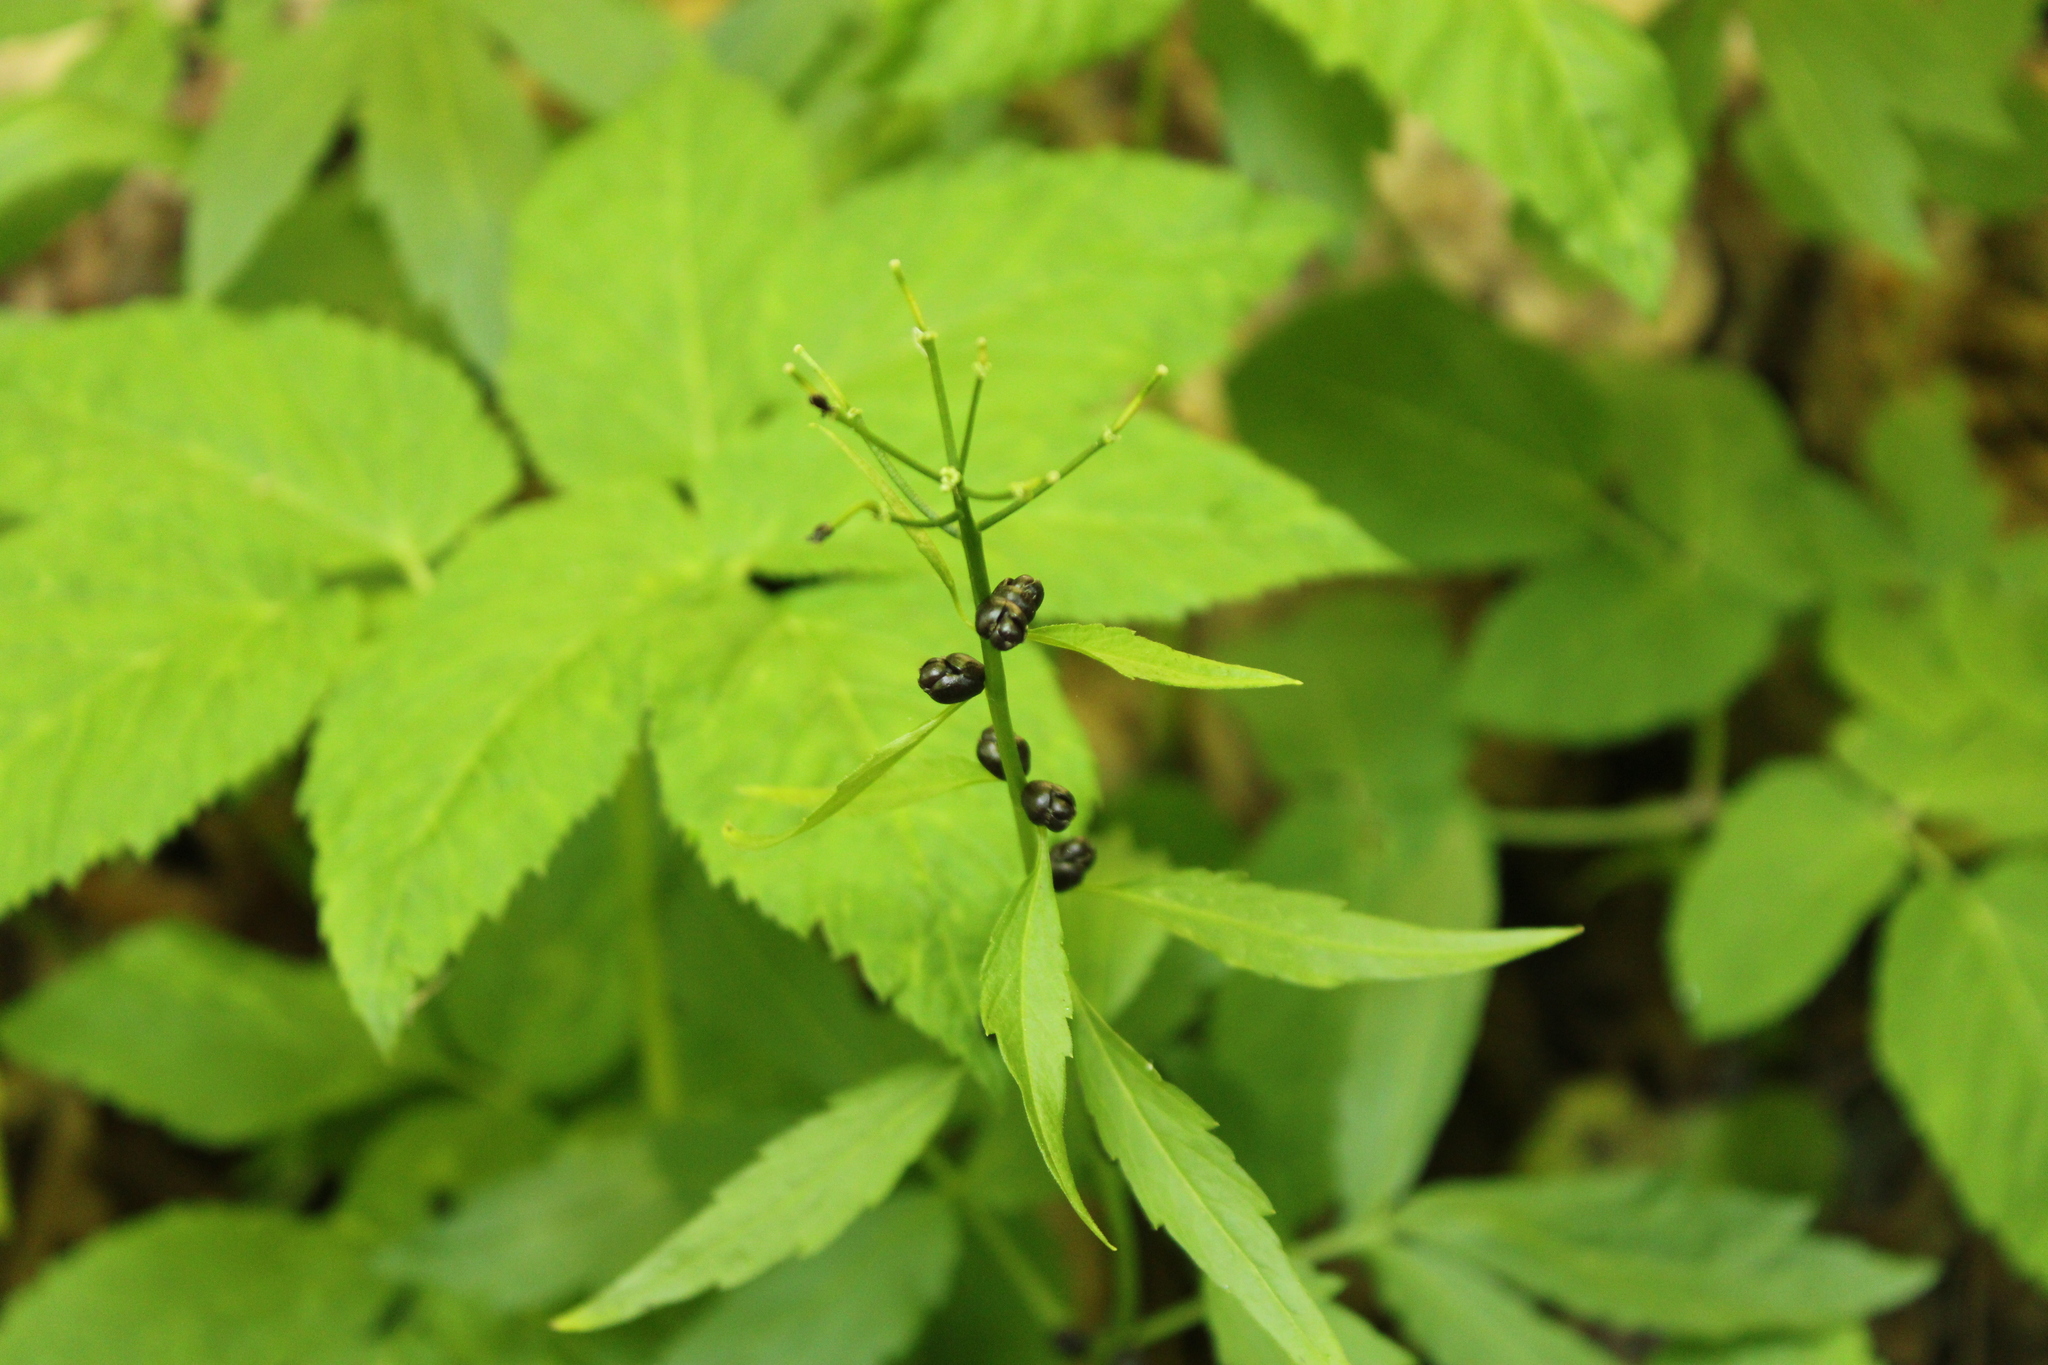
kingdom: Plantae
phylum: Tracheophyta
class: Magnoliopsida
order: Brassicales
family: Brassicaceae
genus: Cardamine
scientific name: Cardamine bulbifera
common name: Coralroot bittercress
